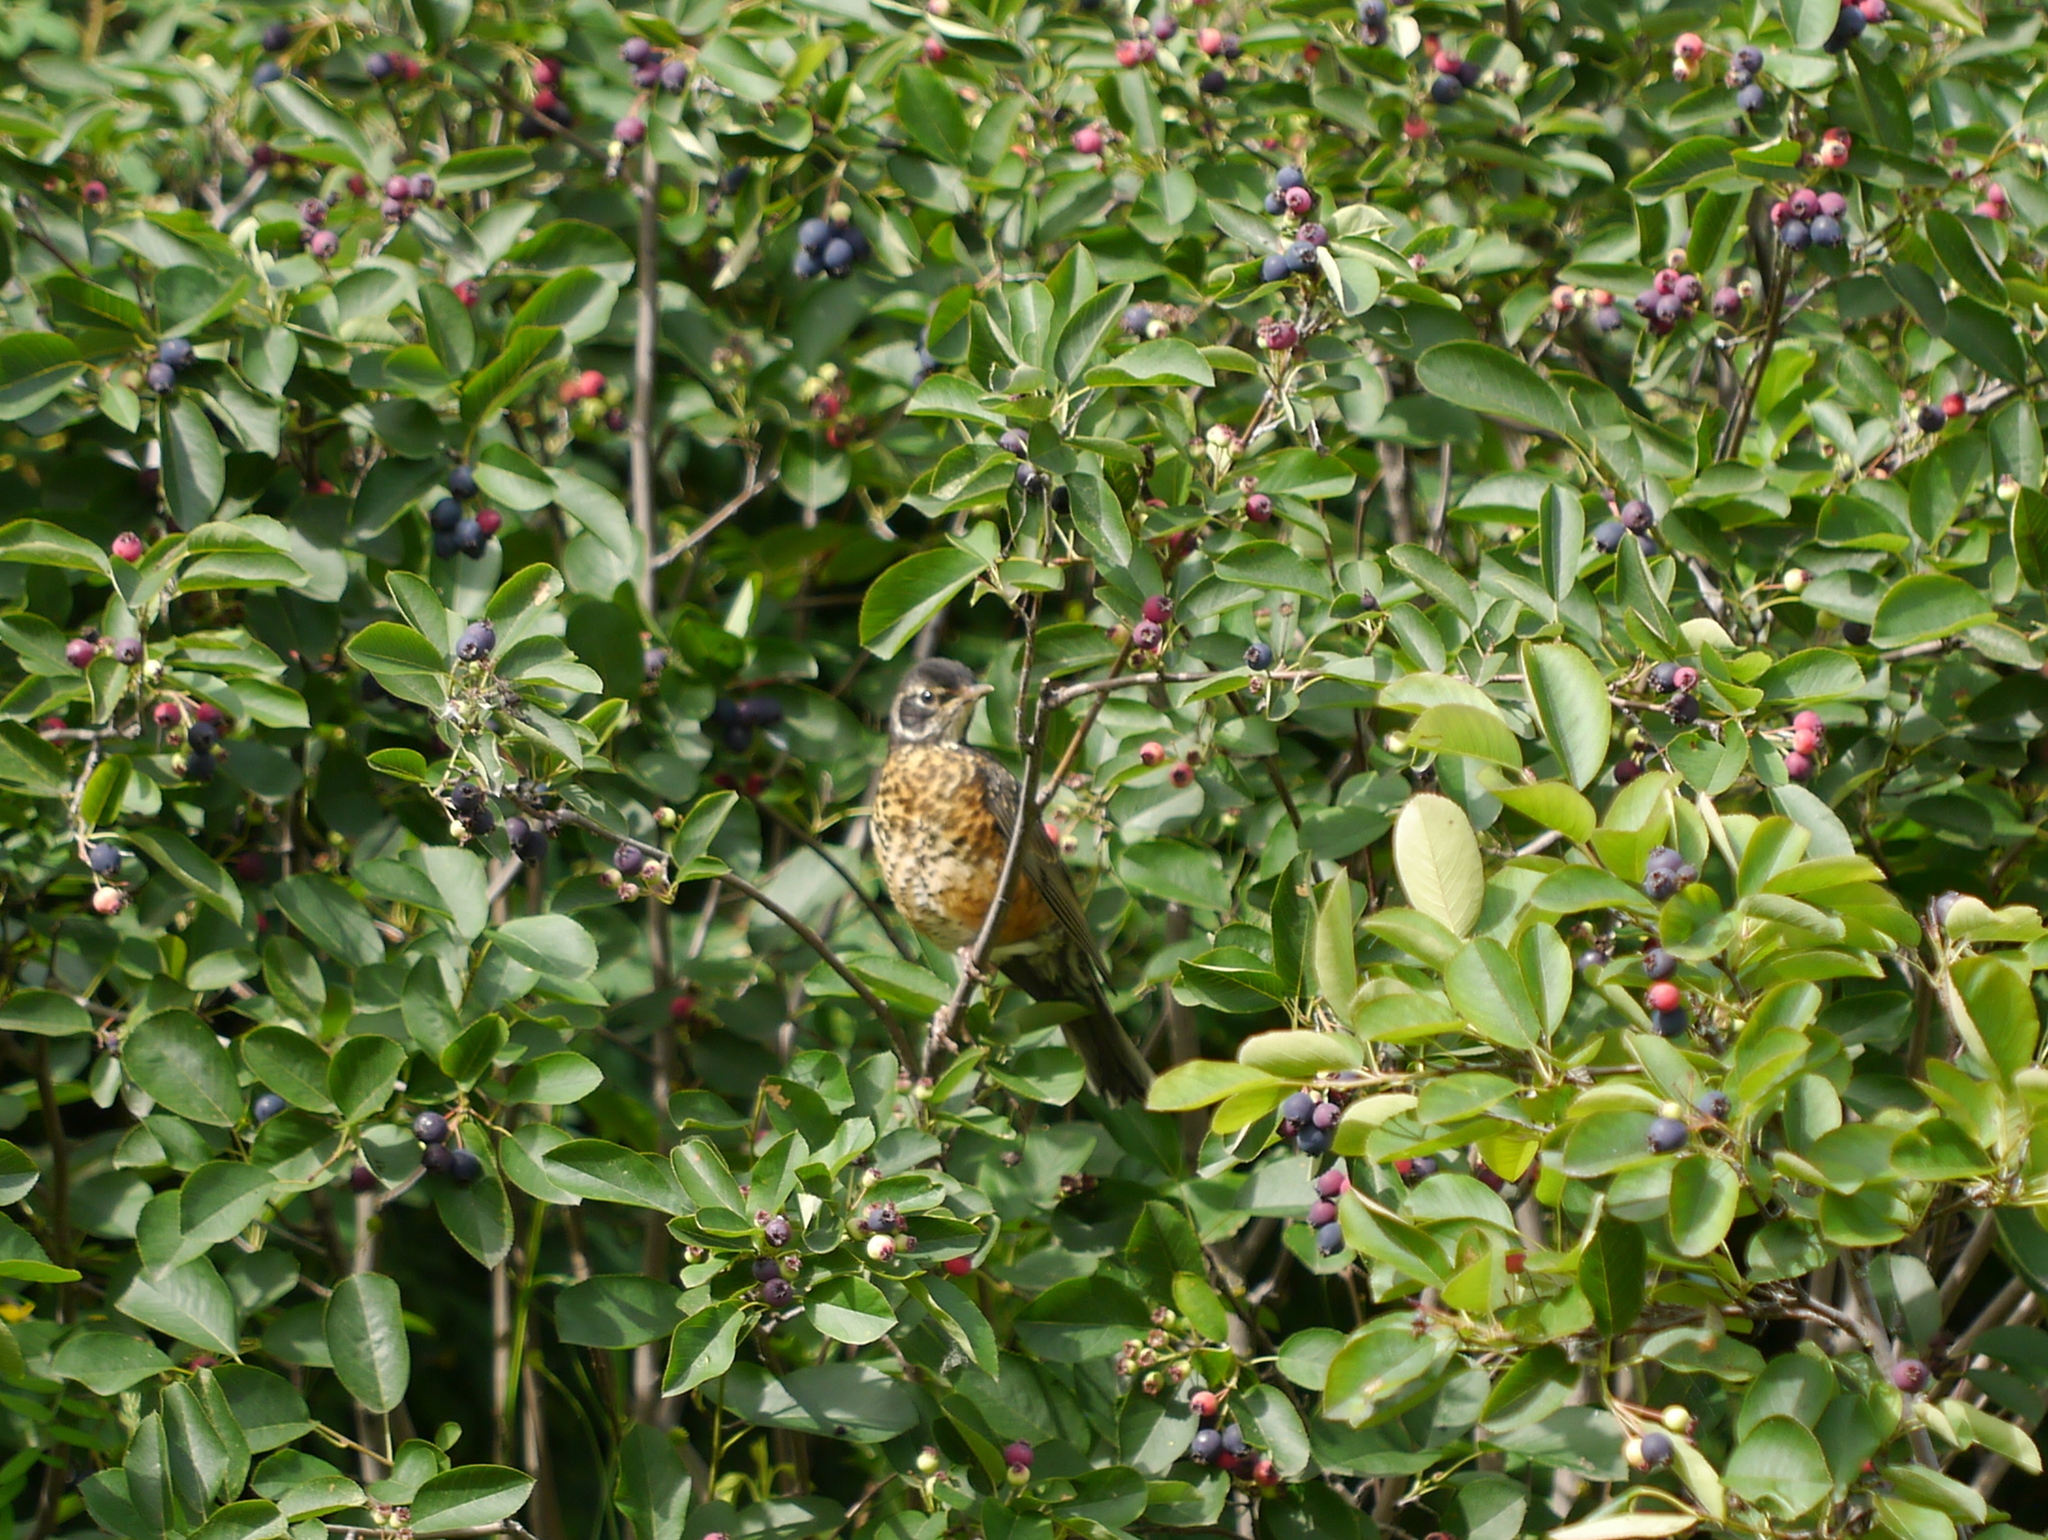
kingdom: Animalia
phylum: Chordata
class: Aves
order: Passeriformes
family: Turdidae
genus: Turdus
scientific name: Turdus migratorius
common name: American robin
